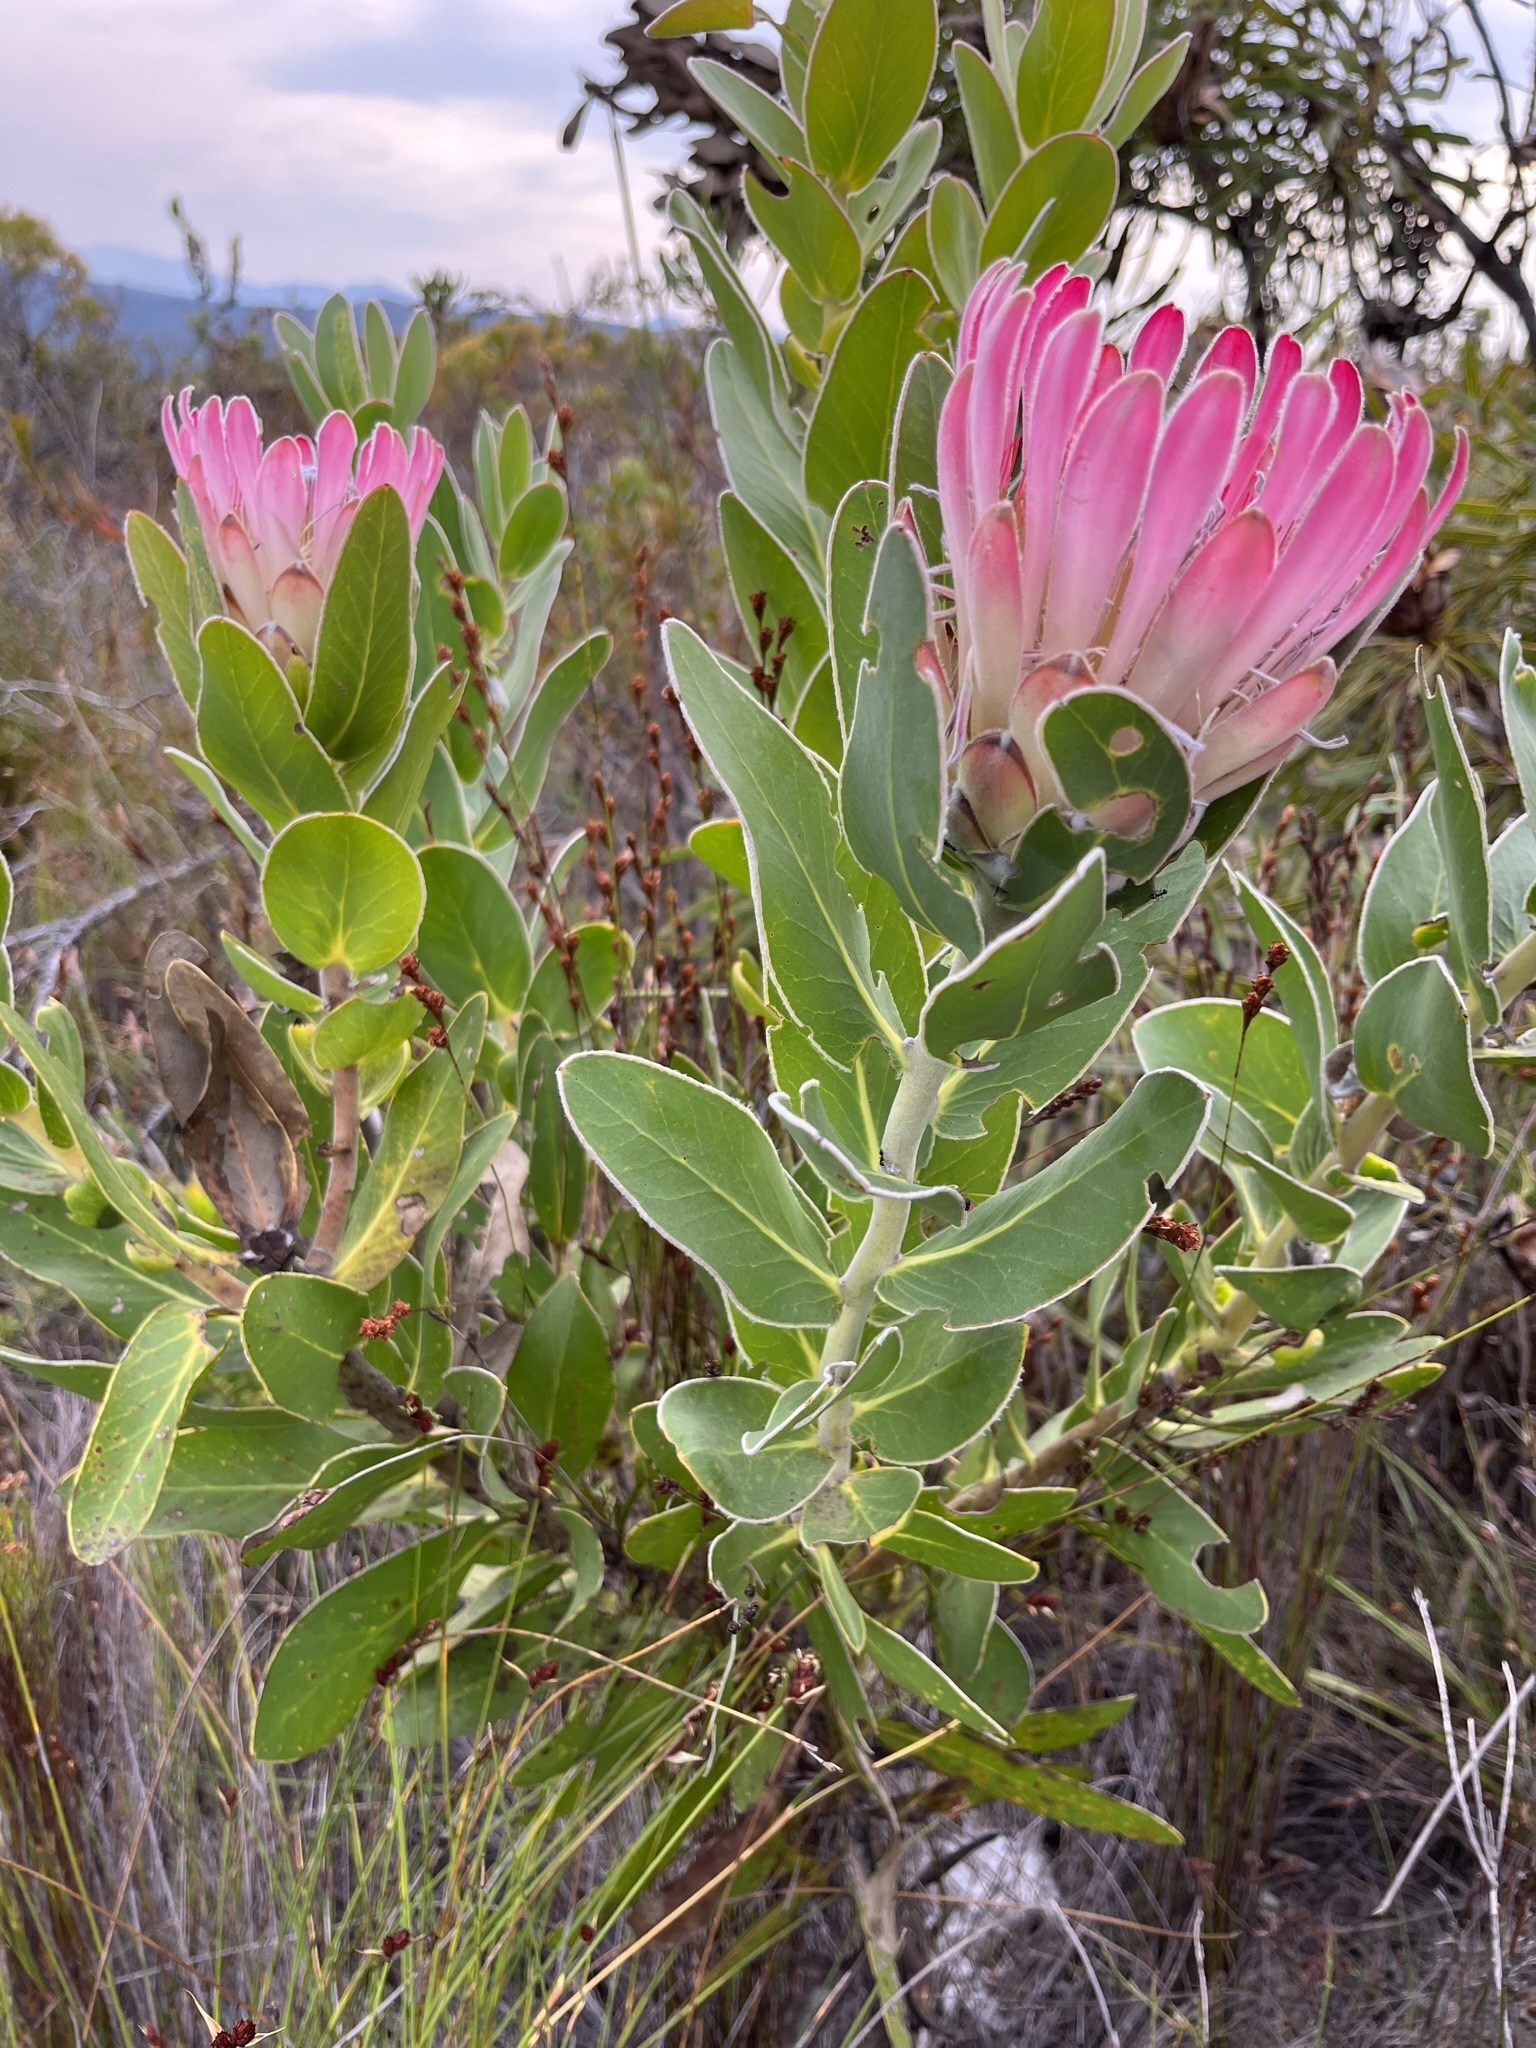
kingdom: Plantae
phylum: Tracheophyta
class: Magnoliopsida
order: Proteales
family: Proteaceae
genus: Protea
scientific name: Protea compacta
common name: Bot river protea
